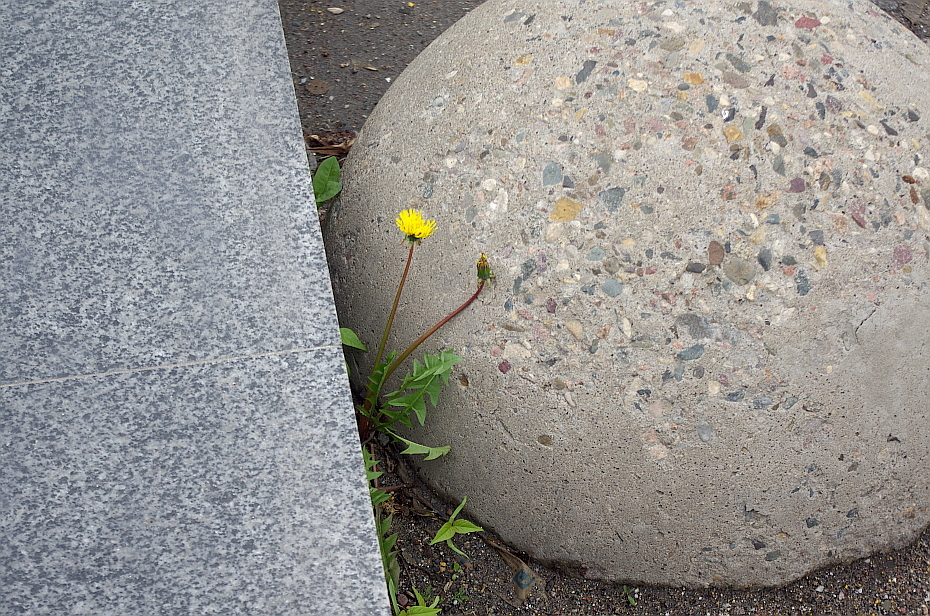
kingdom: Plantae
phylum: Tracheophyta
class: Magnoliopsida
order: Asterales
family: Asteraceae
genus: Taraxacum
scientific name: Taraxacum officinale
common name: Common dandelion
